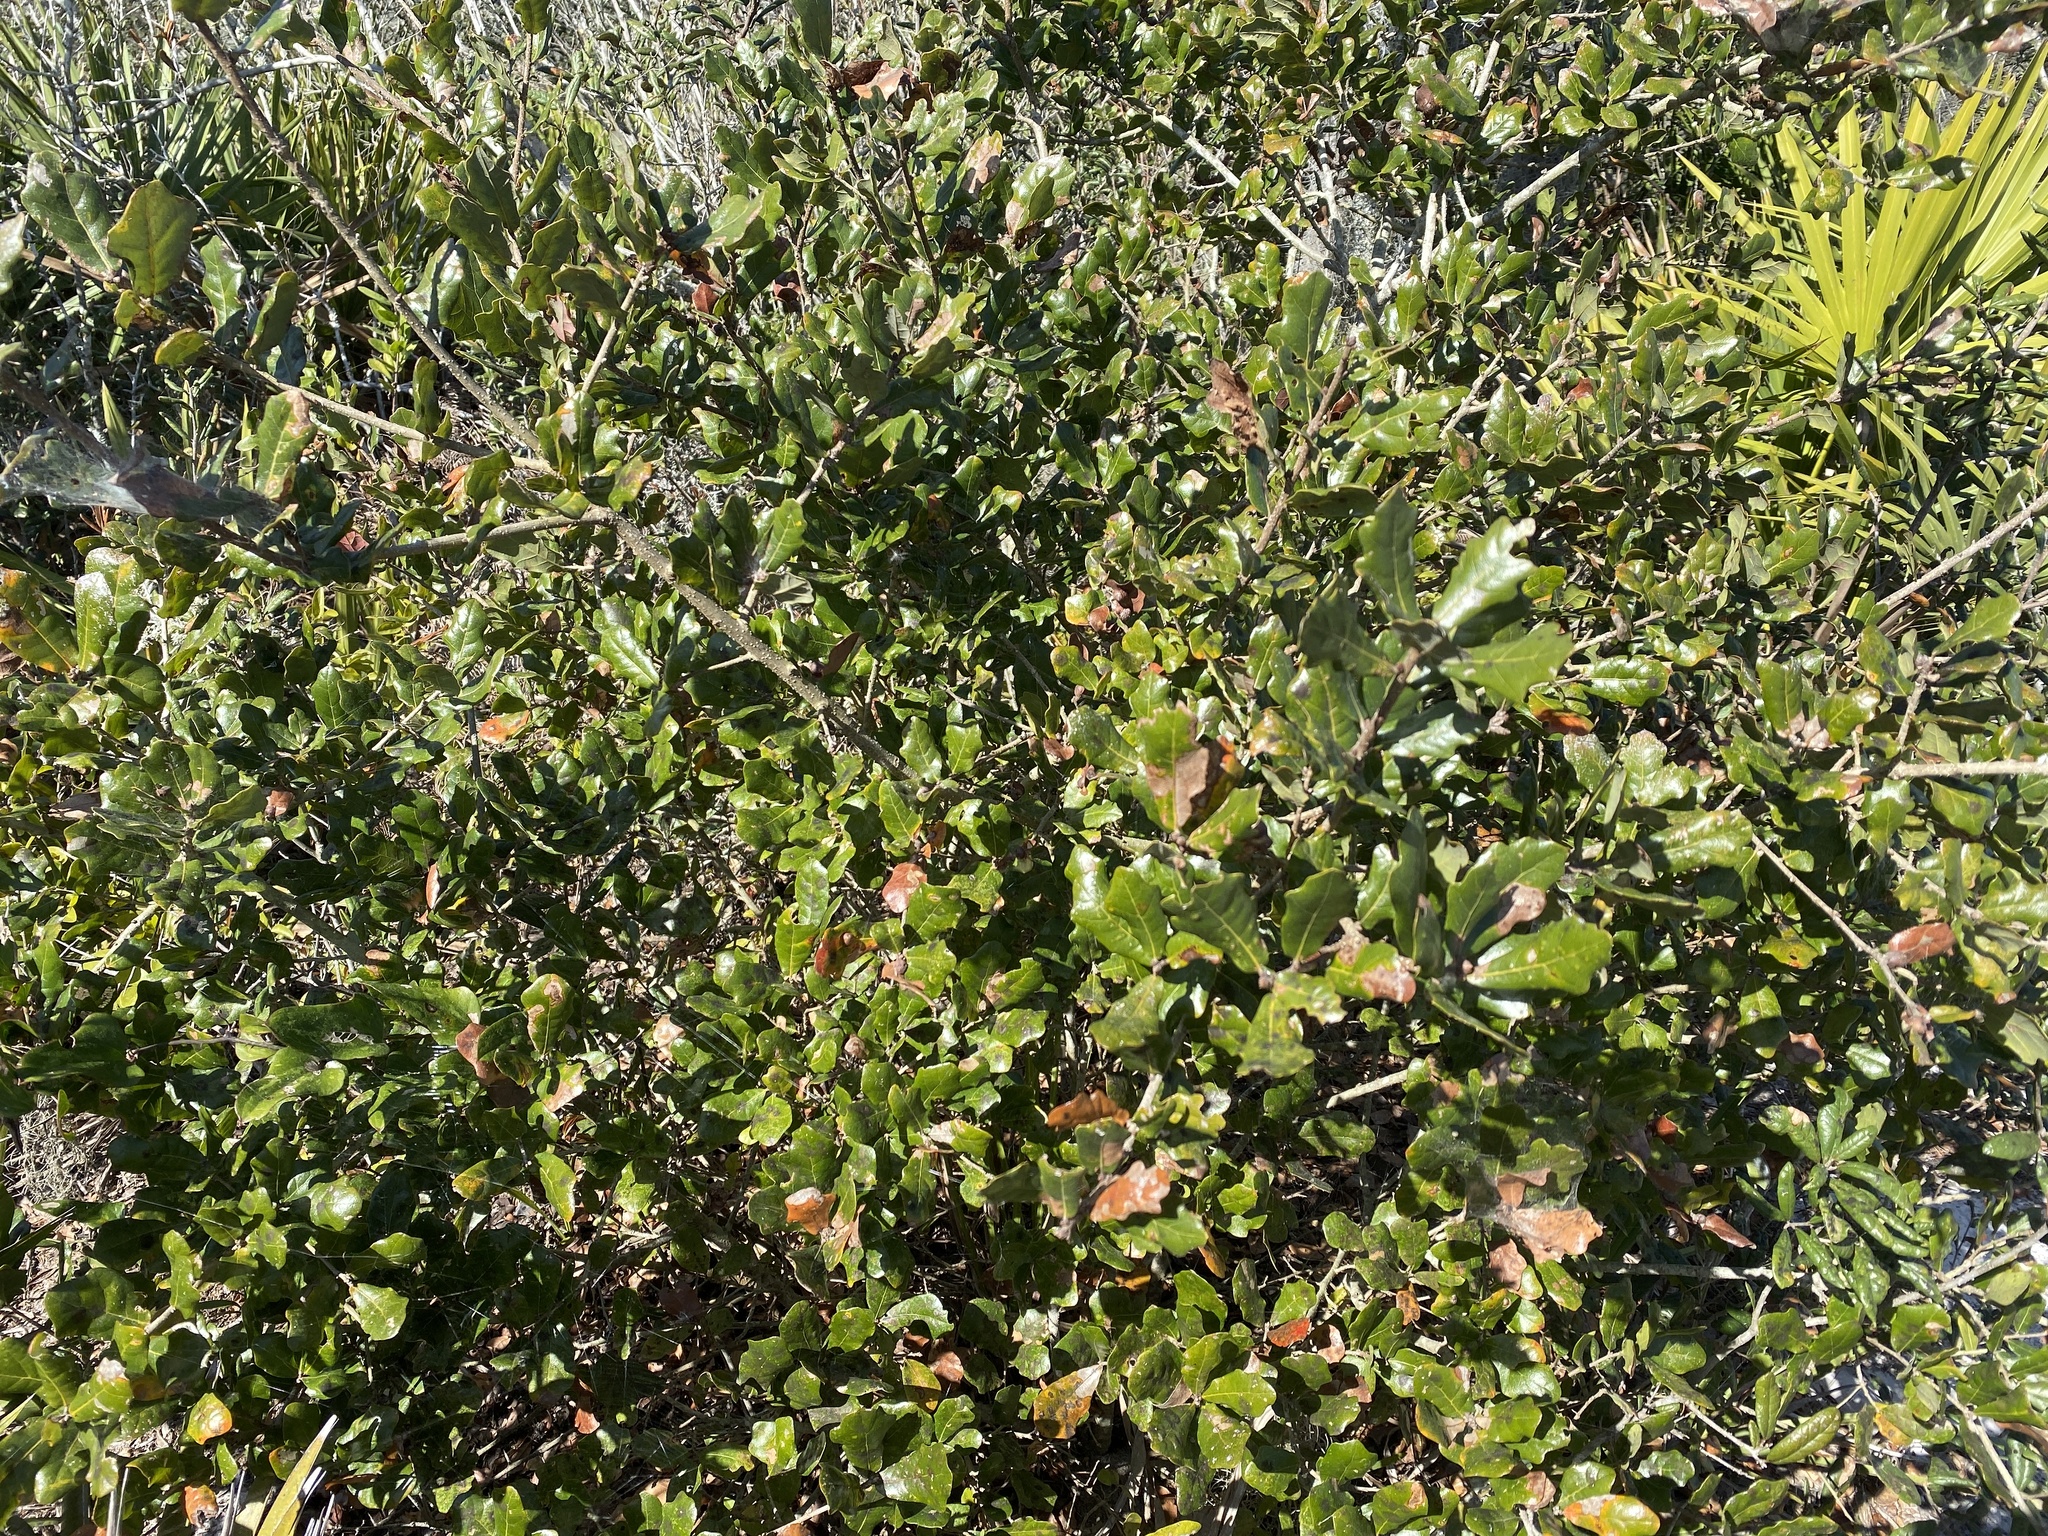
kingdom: Plantae
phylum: Tracheophyta
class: Magnoliopsida
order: Fagales
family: Fagaceae
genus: Quercus
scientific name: Quercus chapmanii
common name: Chapman oak
